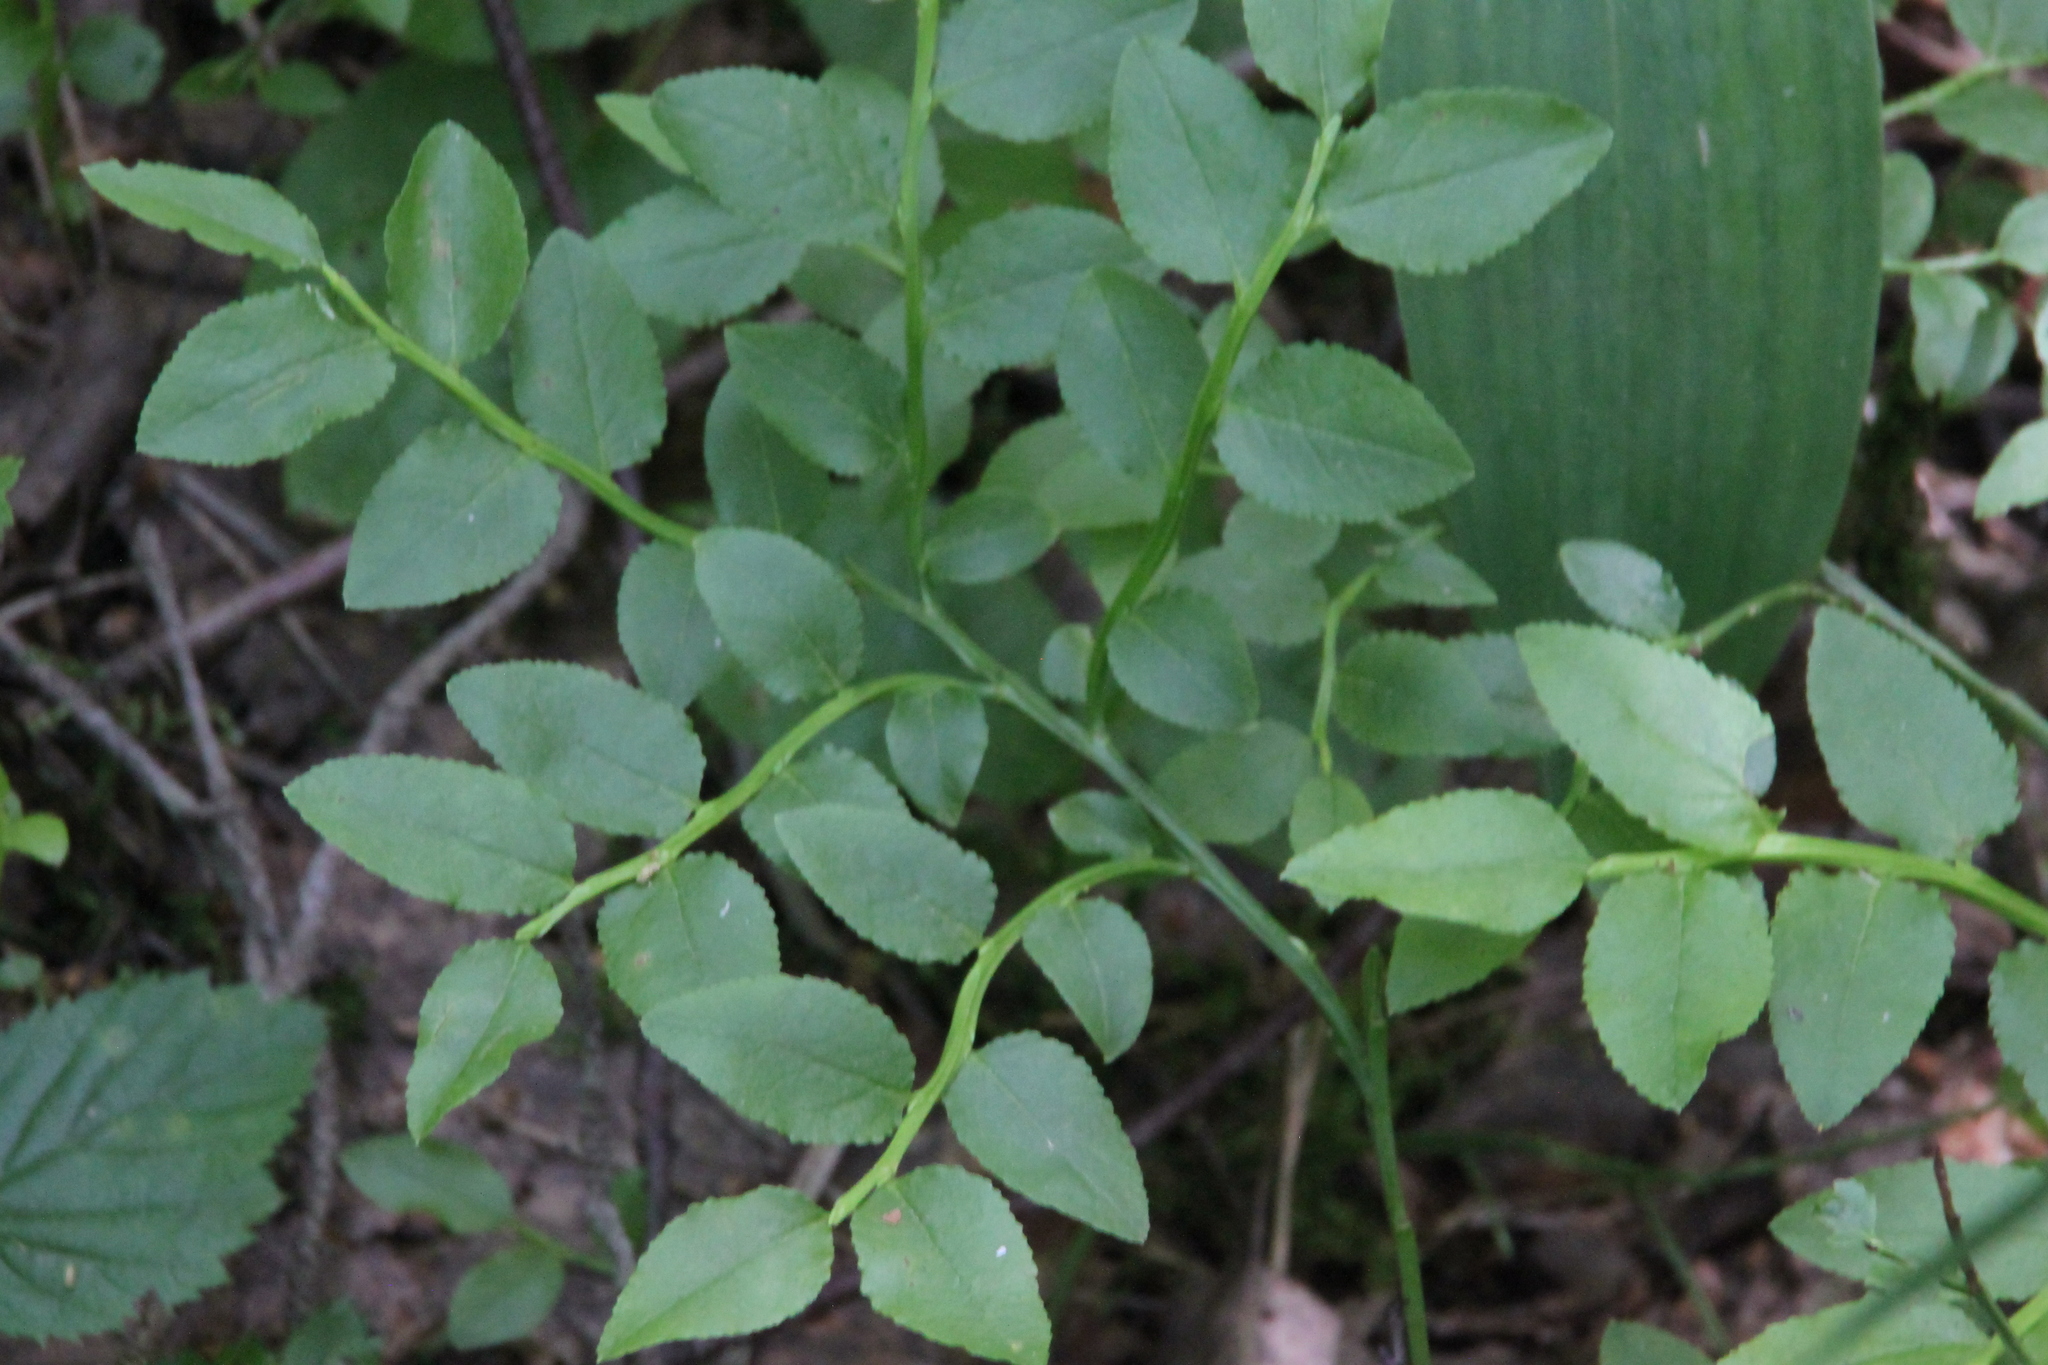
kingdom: Plantae
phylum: Tracheophyta
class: Magnoliopsida
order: Ericales
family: Ericaceae
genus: Vaccinium
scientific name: Vaccinium myrtillus
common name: Bilberry
